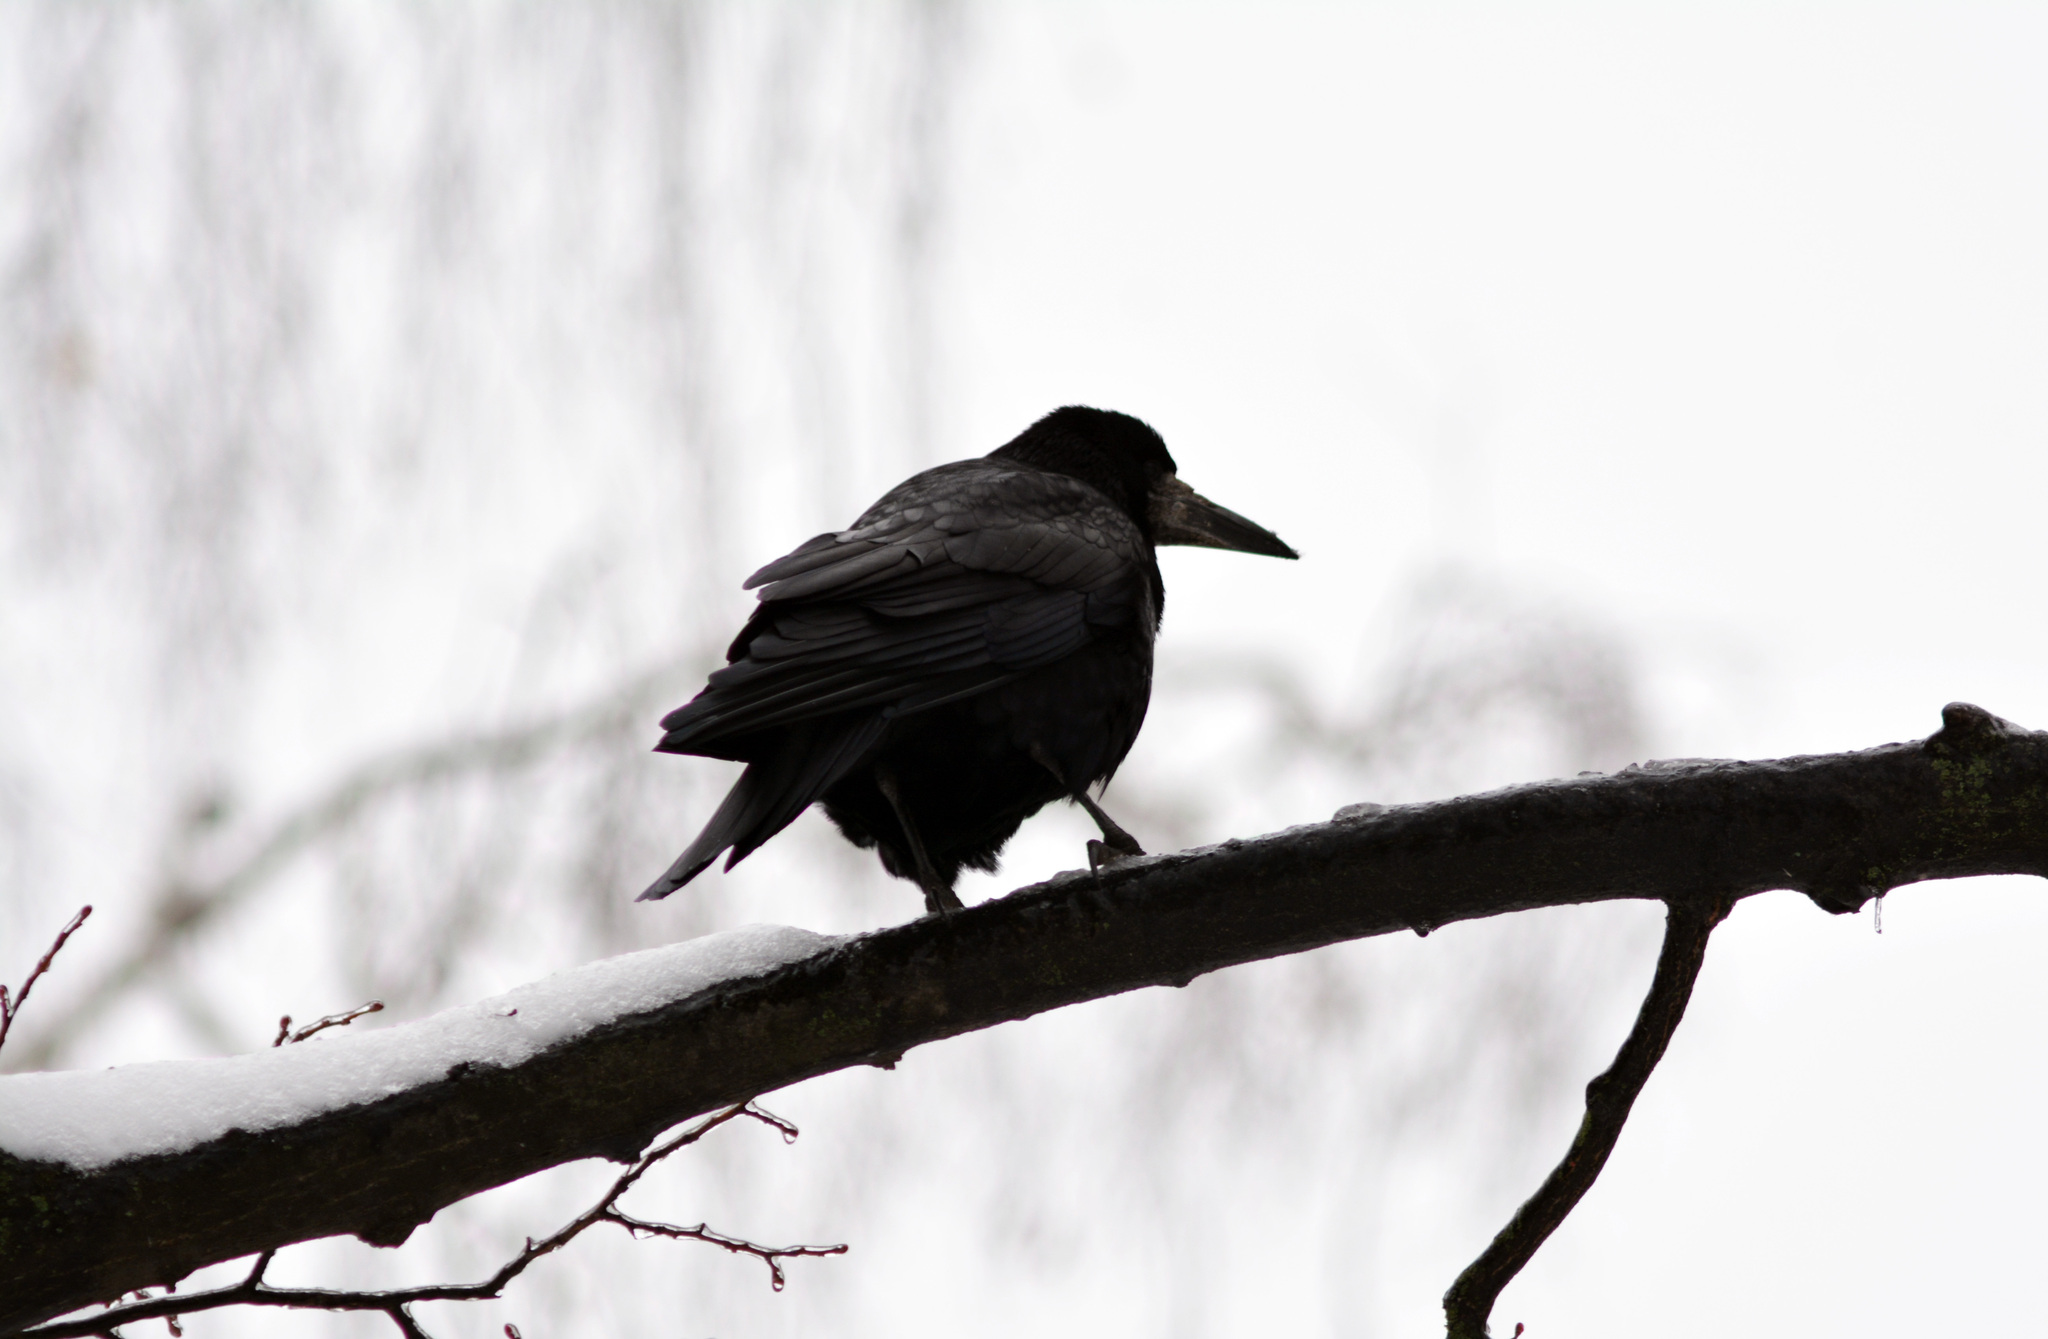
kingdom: Animalia
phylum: Chordata
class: Aves
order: Passeriformes
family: Corvidae
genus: Corvus
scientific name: Corvus frugilegus
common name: Rook
